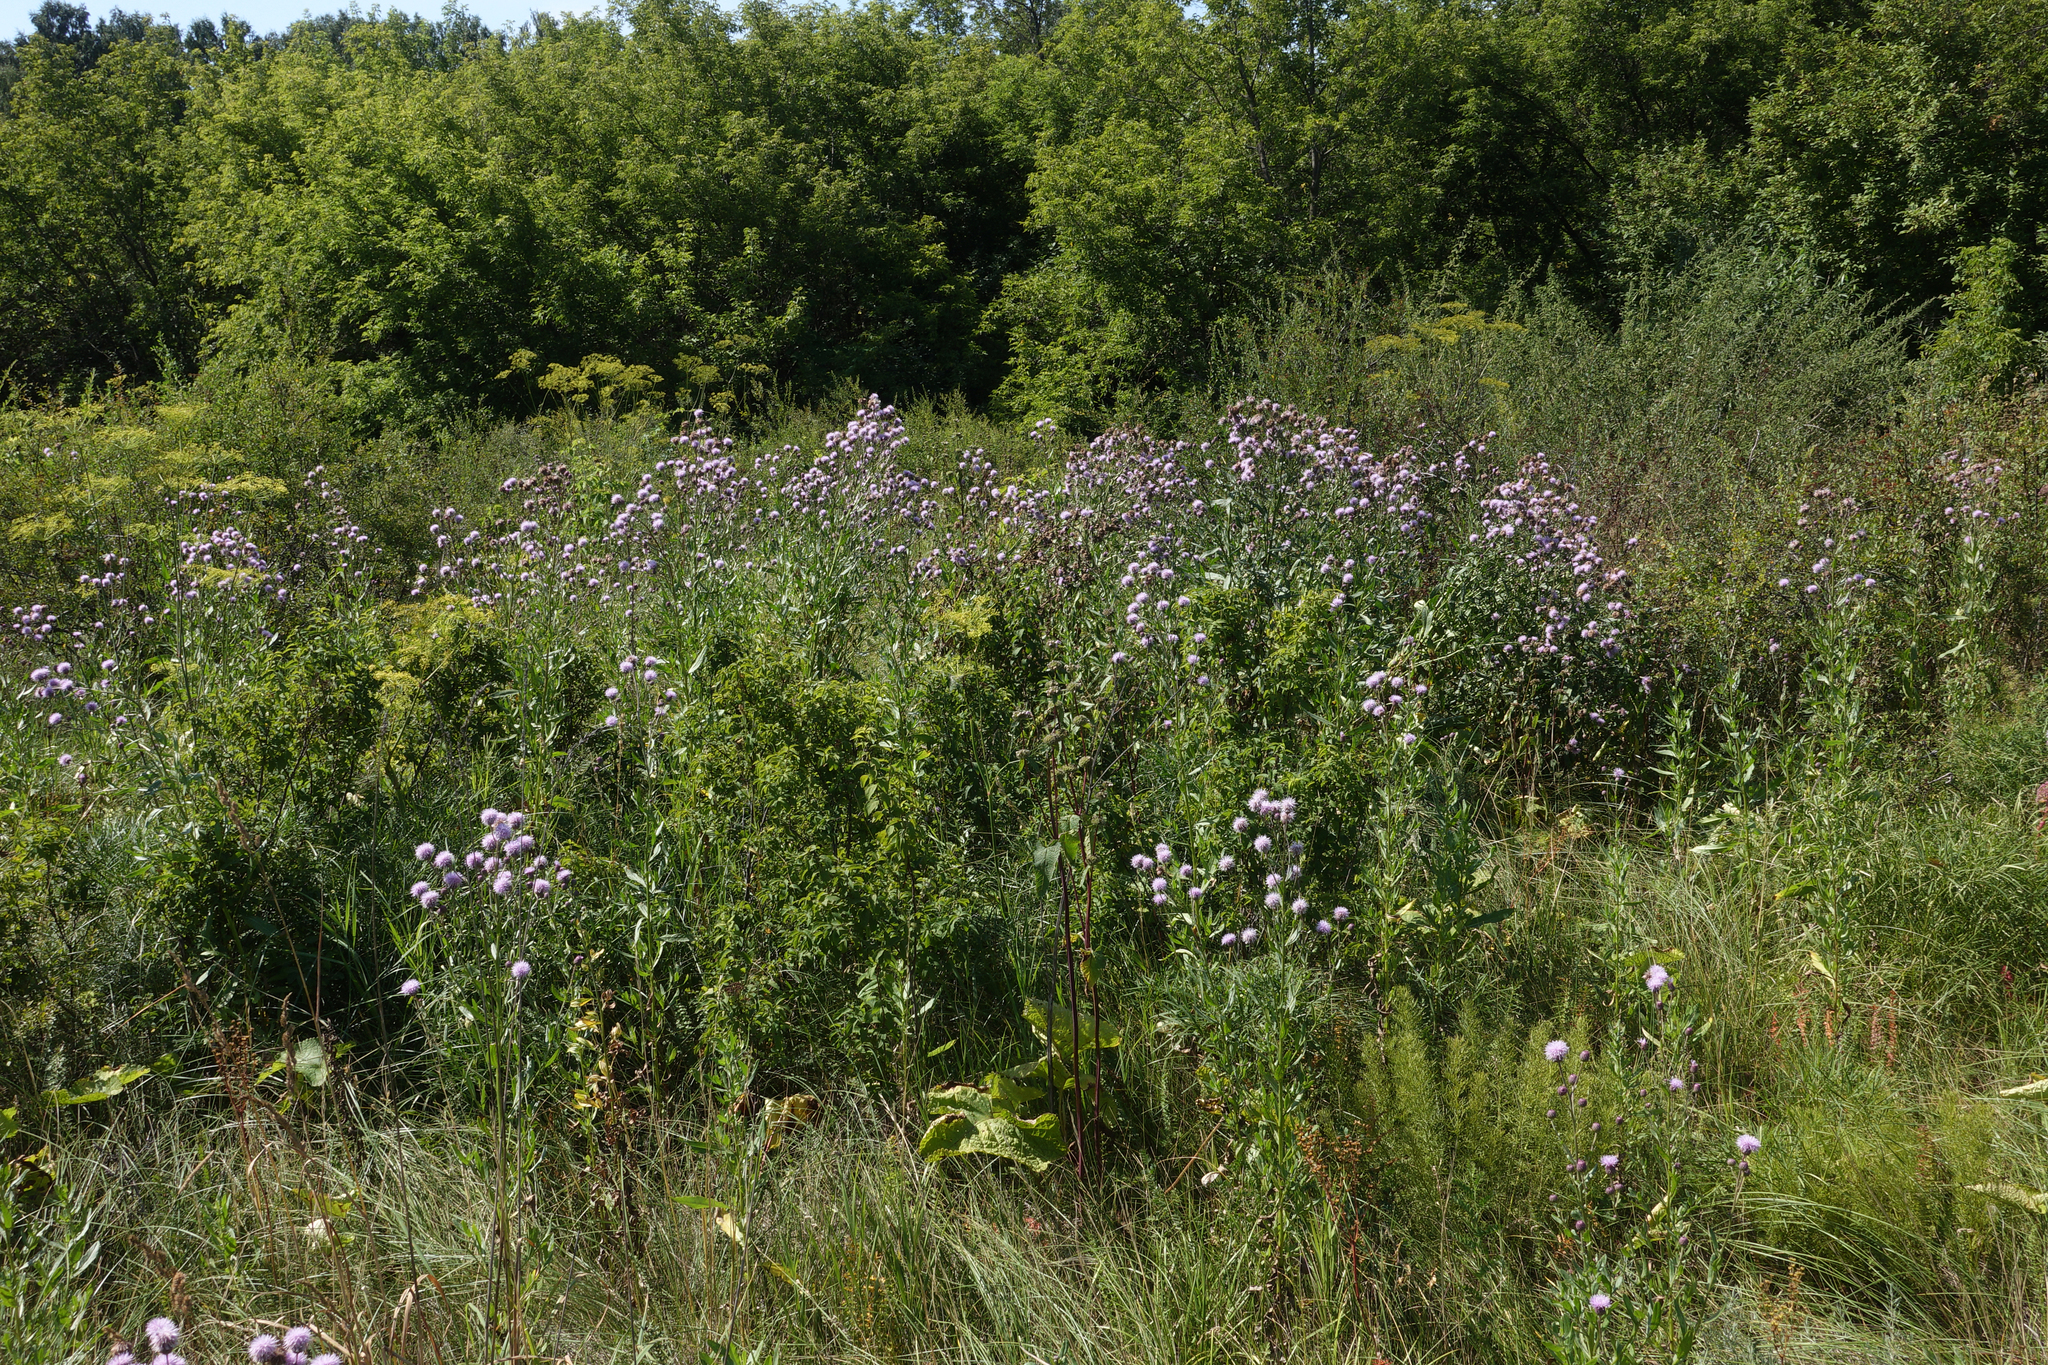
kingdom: Plantae
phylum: Tracheophyta
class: Magnoliopsida
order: Asterales
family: Asteraceae
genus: Cirsium
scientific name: Cirsium arvense
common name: Creeping thistle
